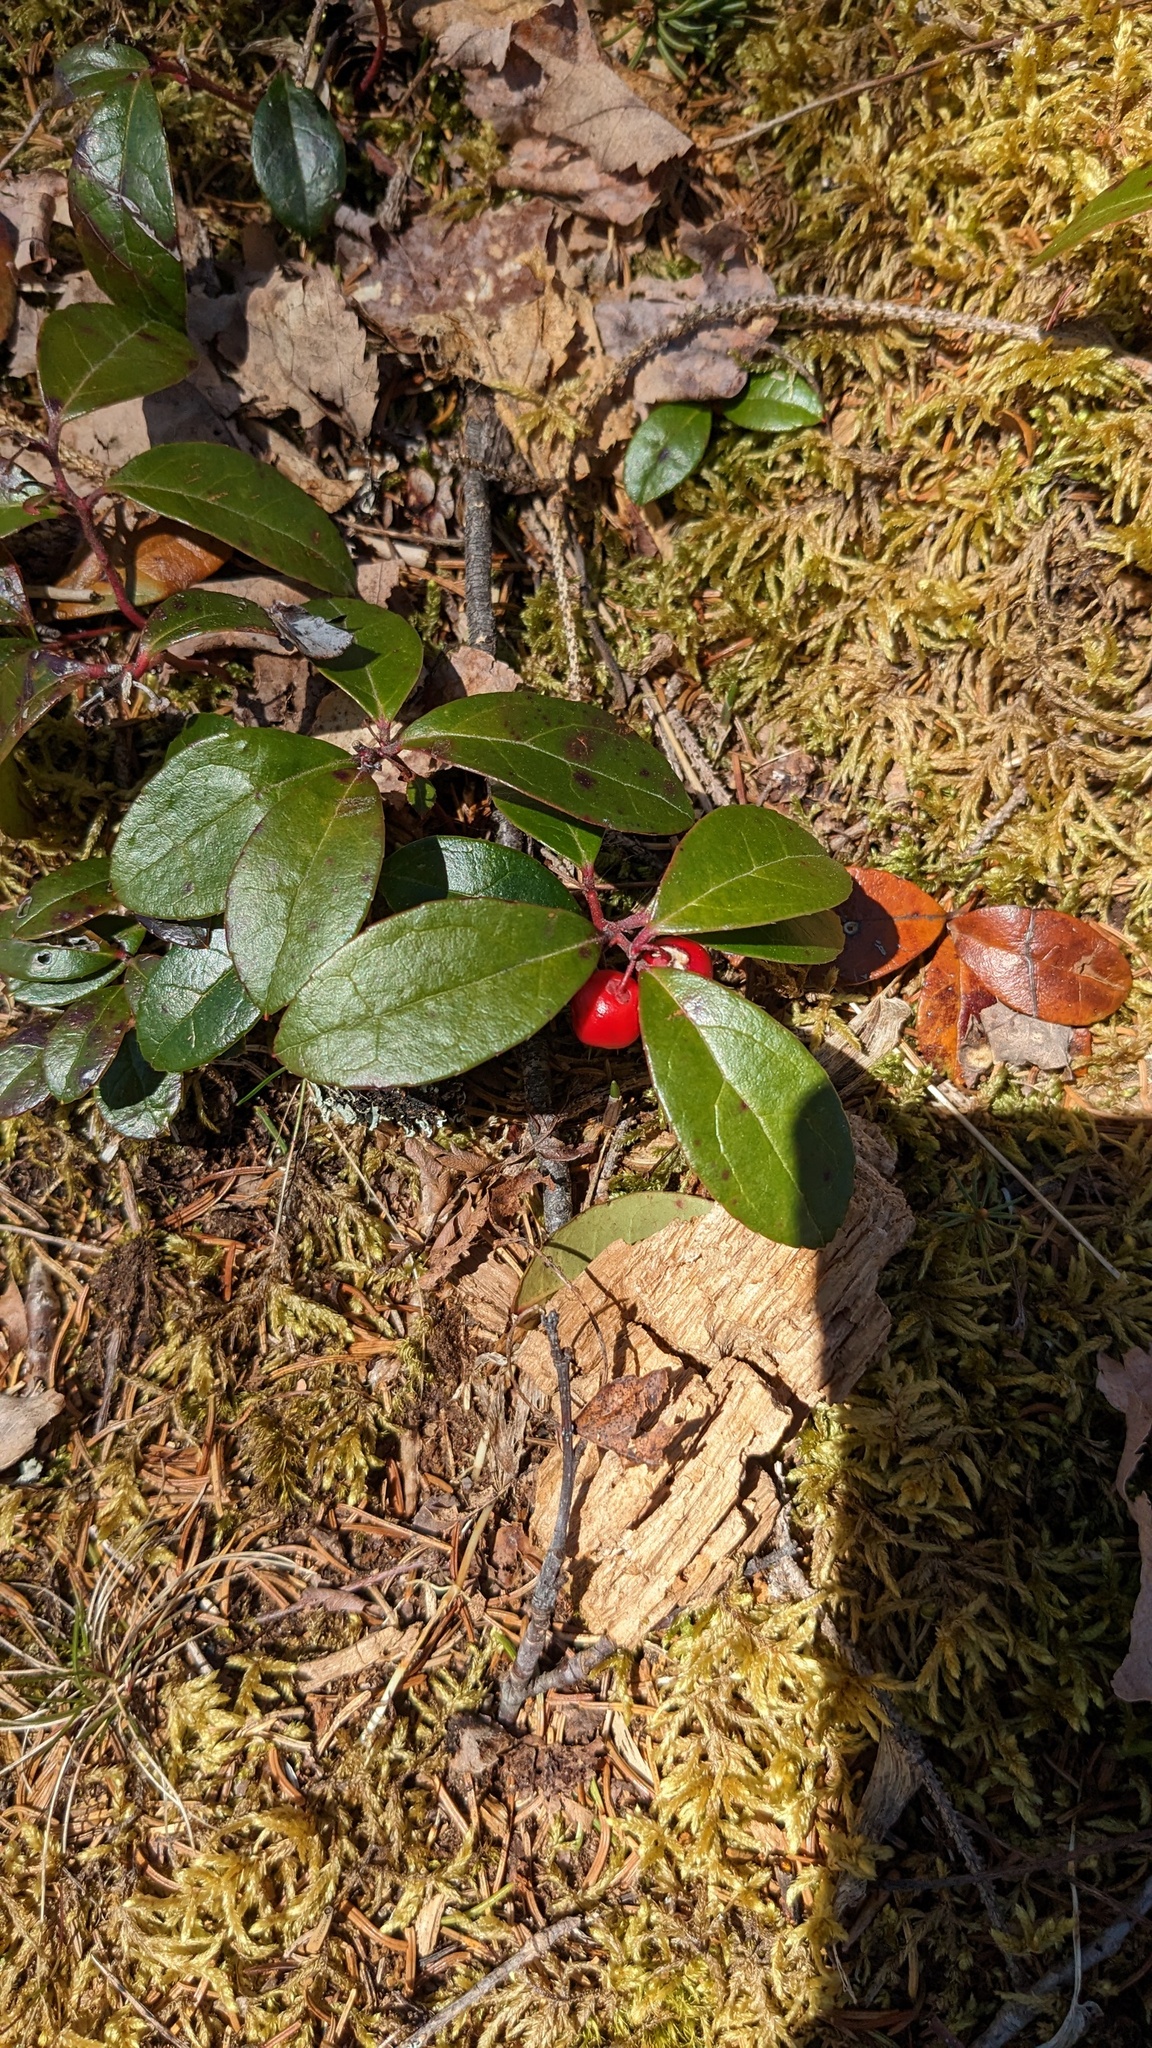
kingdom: Plantae
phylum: Tracheophyta
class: Magnoliopsida
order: Ericales
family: Ericaceae
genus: Gaultheria
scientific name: Gaultheria procumbens
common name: Checkerberry
